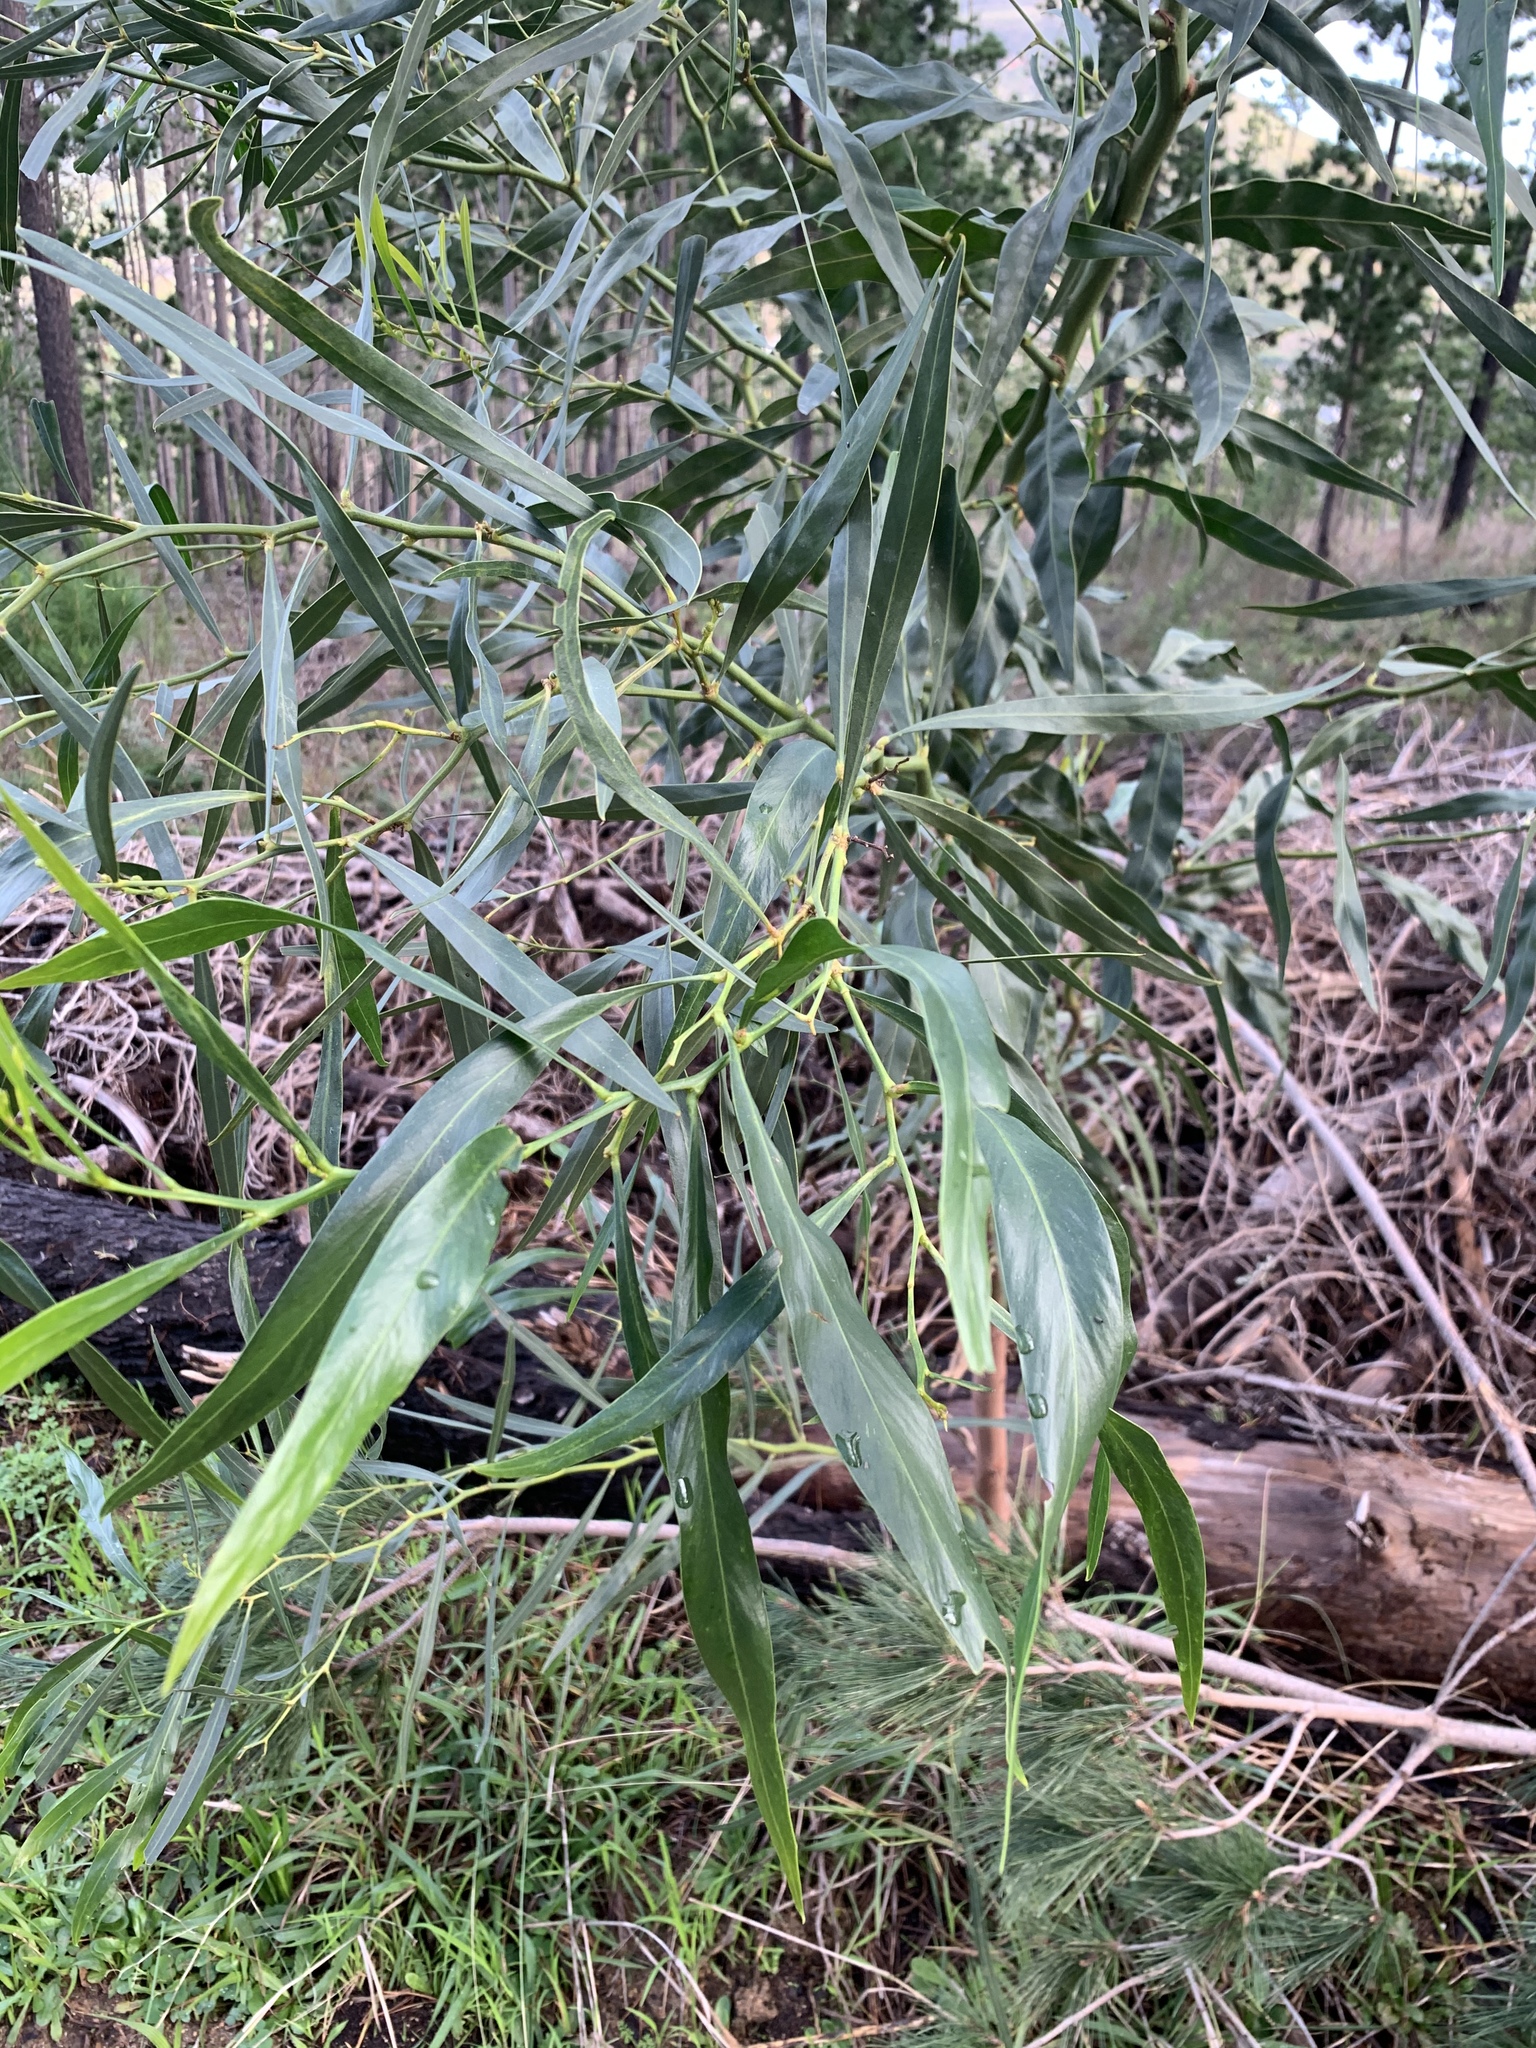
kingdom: Plantae
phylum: Tracheophyta
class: Magnoliopsida
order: Fabales
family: Fabaceae
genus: Acacia
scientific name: Acacia saligna
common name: Orange wattle
